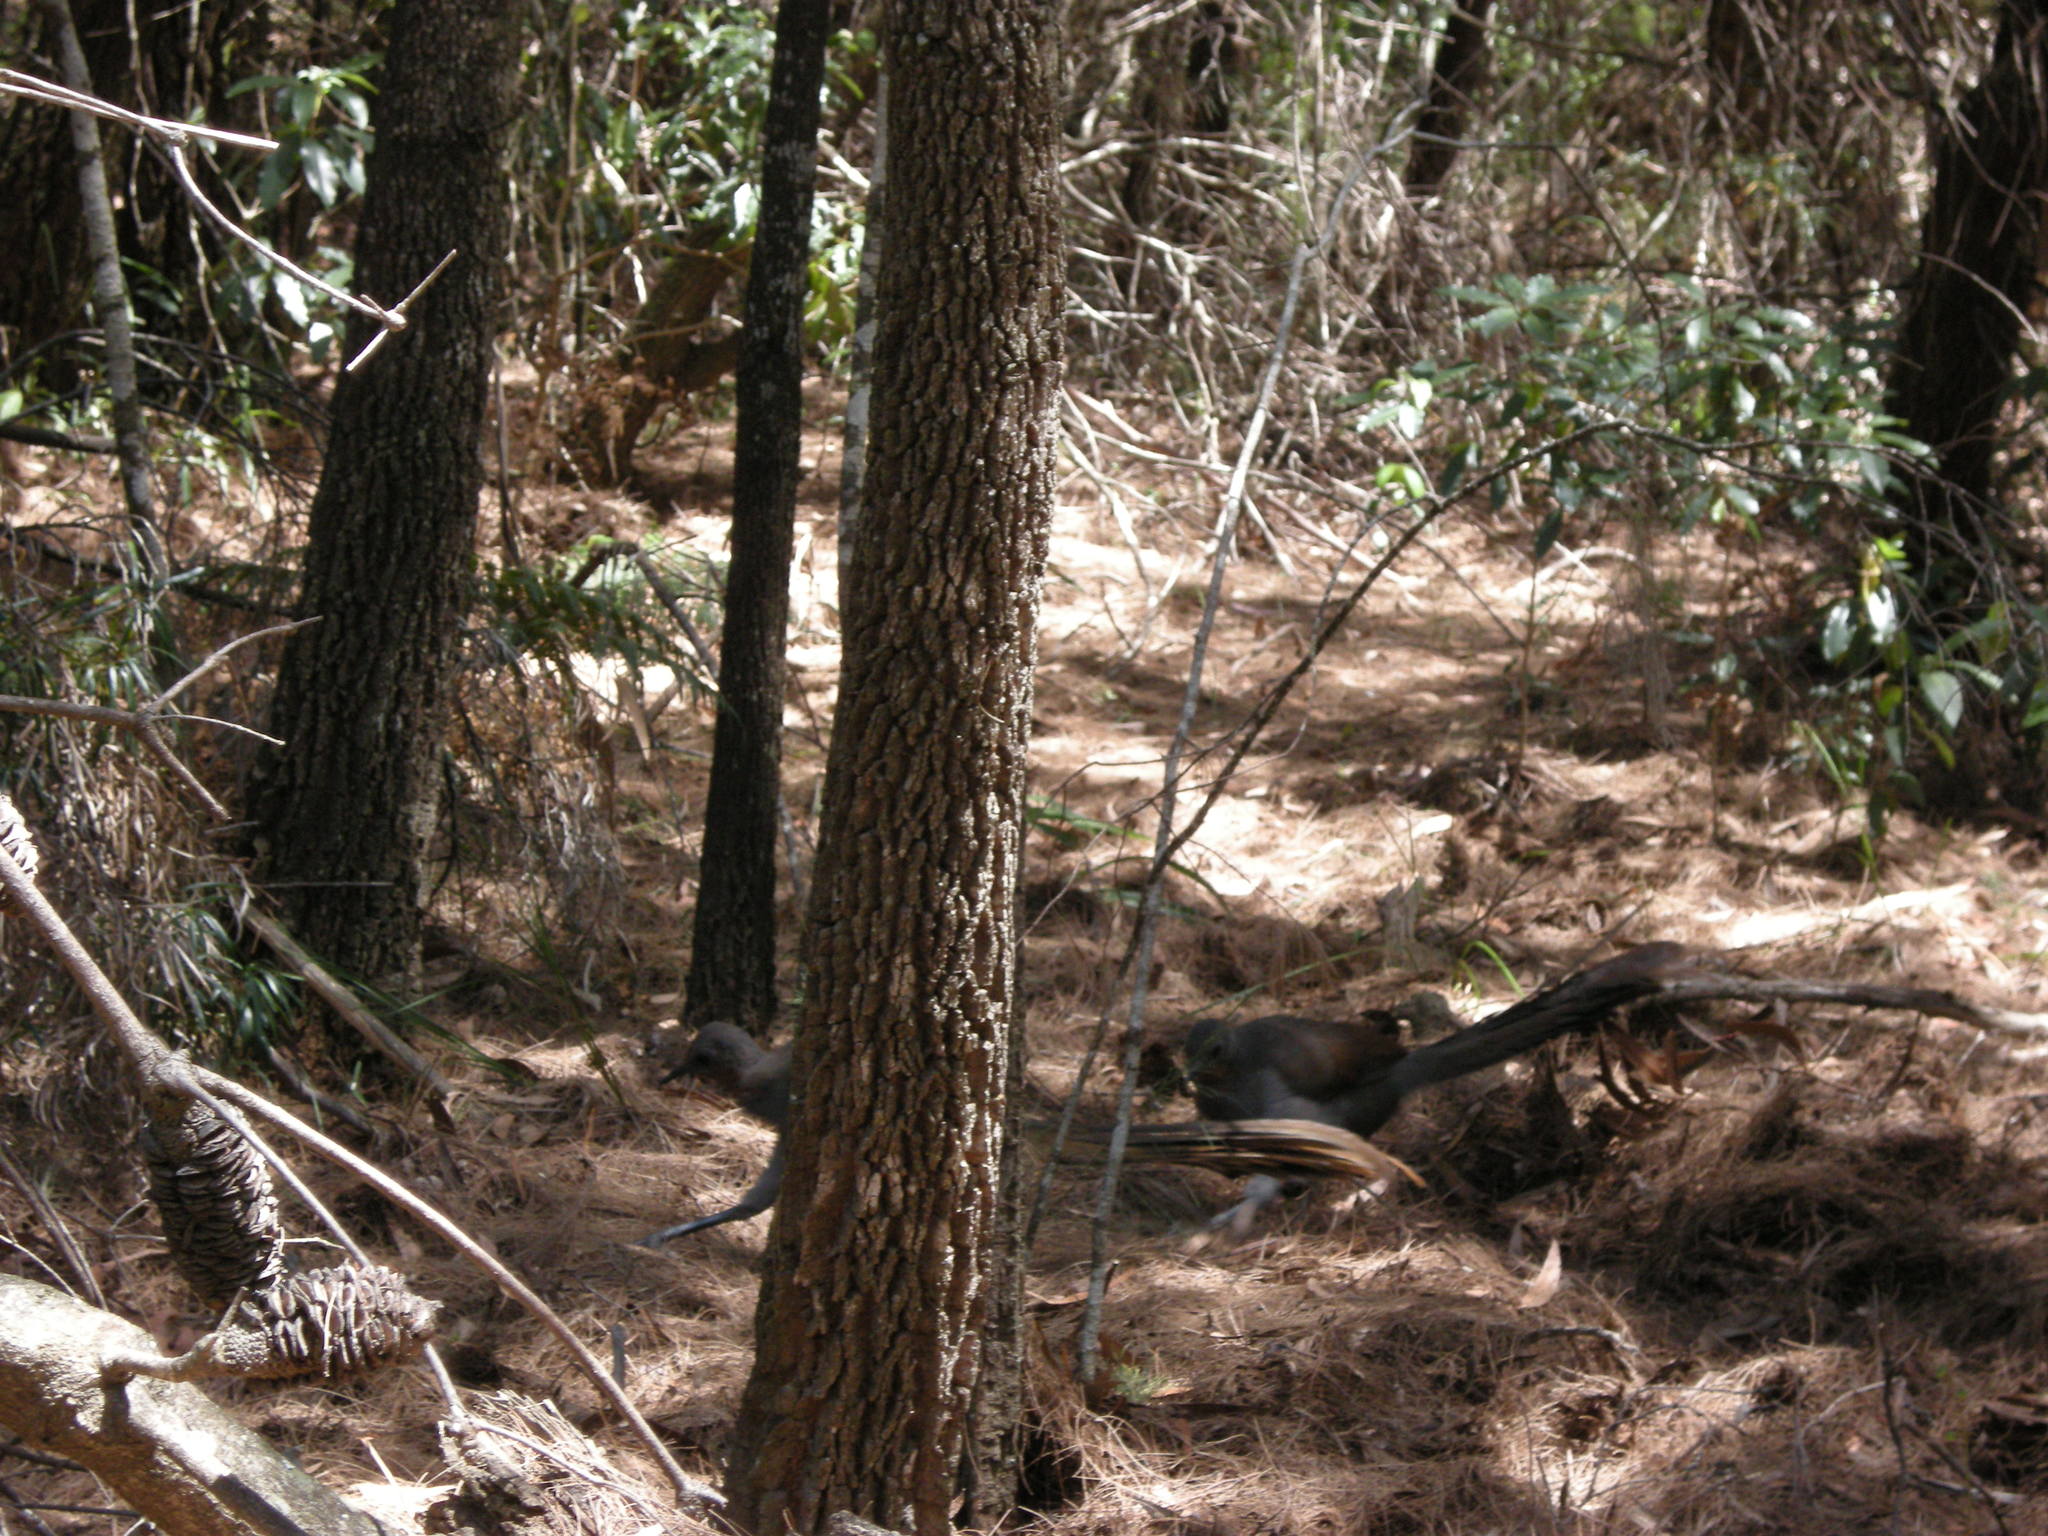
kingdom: Animalia
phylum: Chordata
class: Aves
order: Passeriformes
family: Menuridae
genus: Menura
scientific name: Menura novaehollandiae
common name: Superb lyrebird
